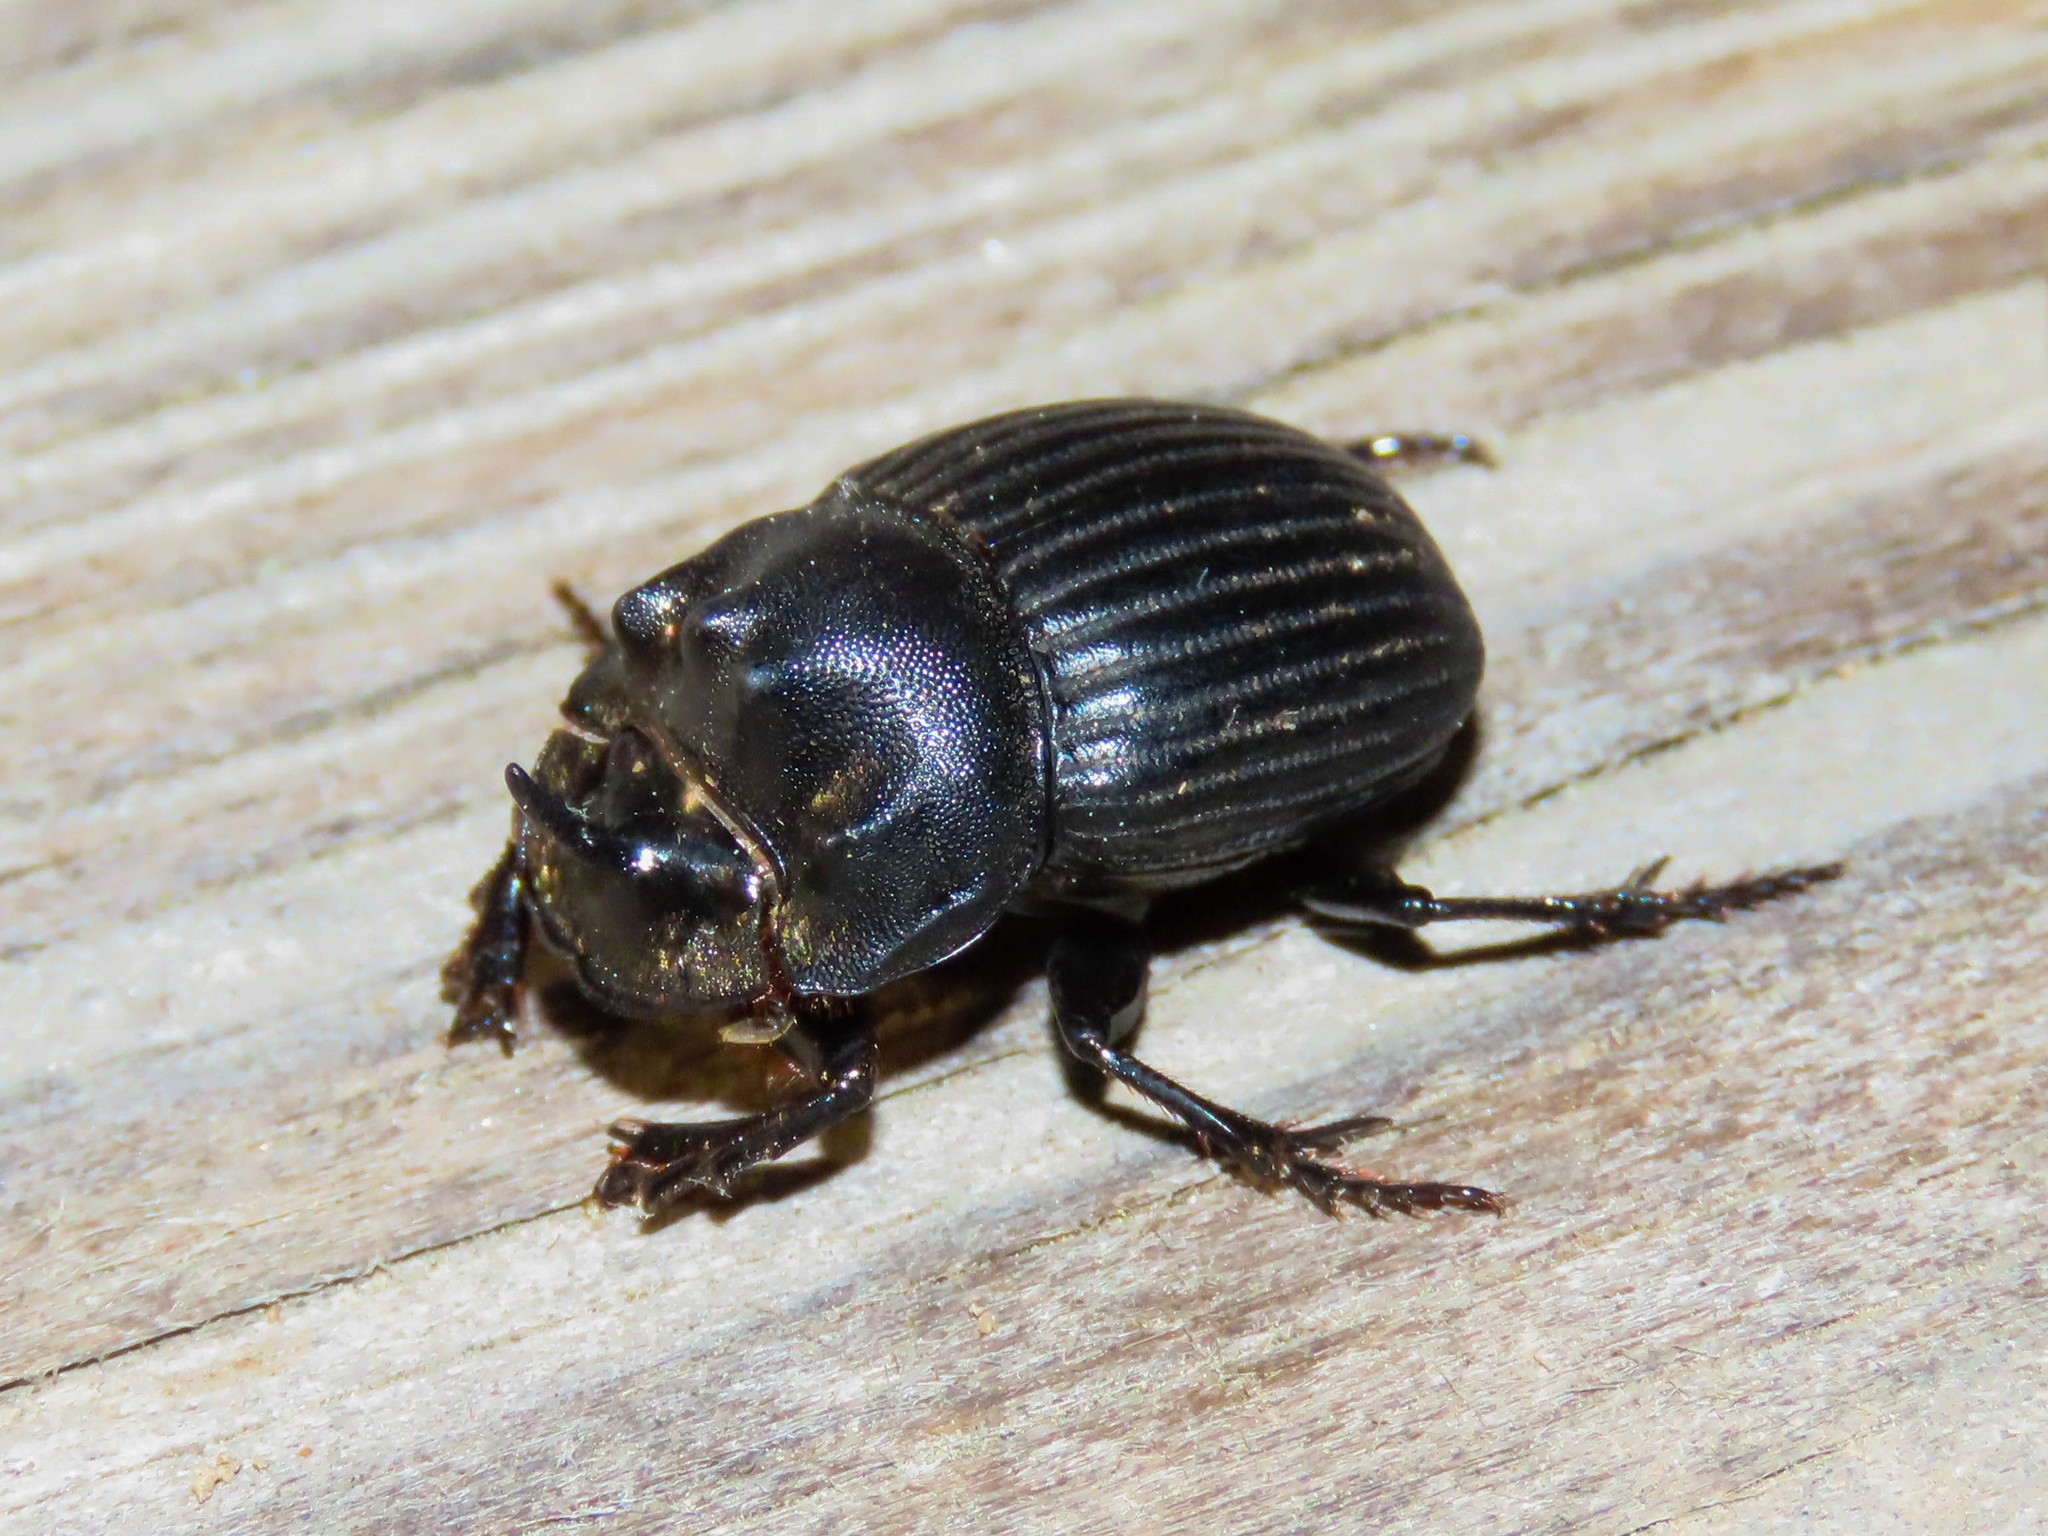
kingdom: Animalia
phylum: Arthropoda
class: Insecta
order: Coleoptera
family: Scarabaeidae
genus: Copris
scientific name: Copris fricator
